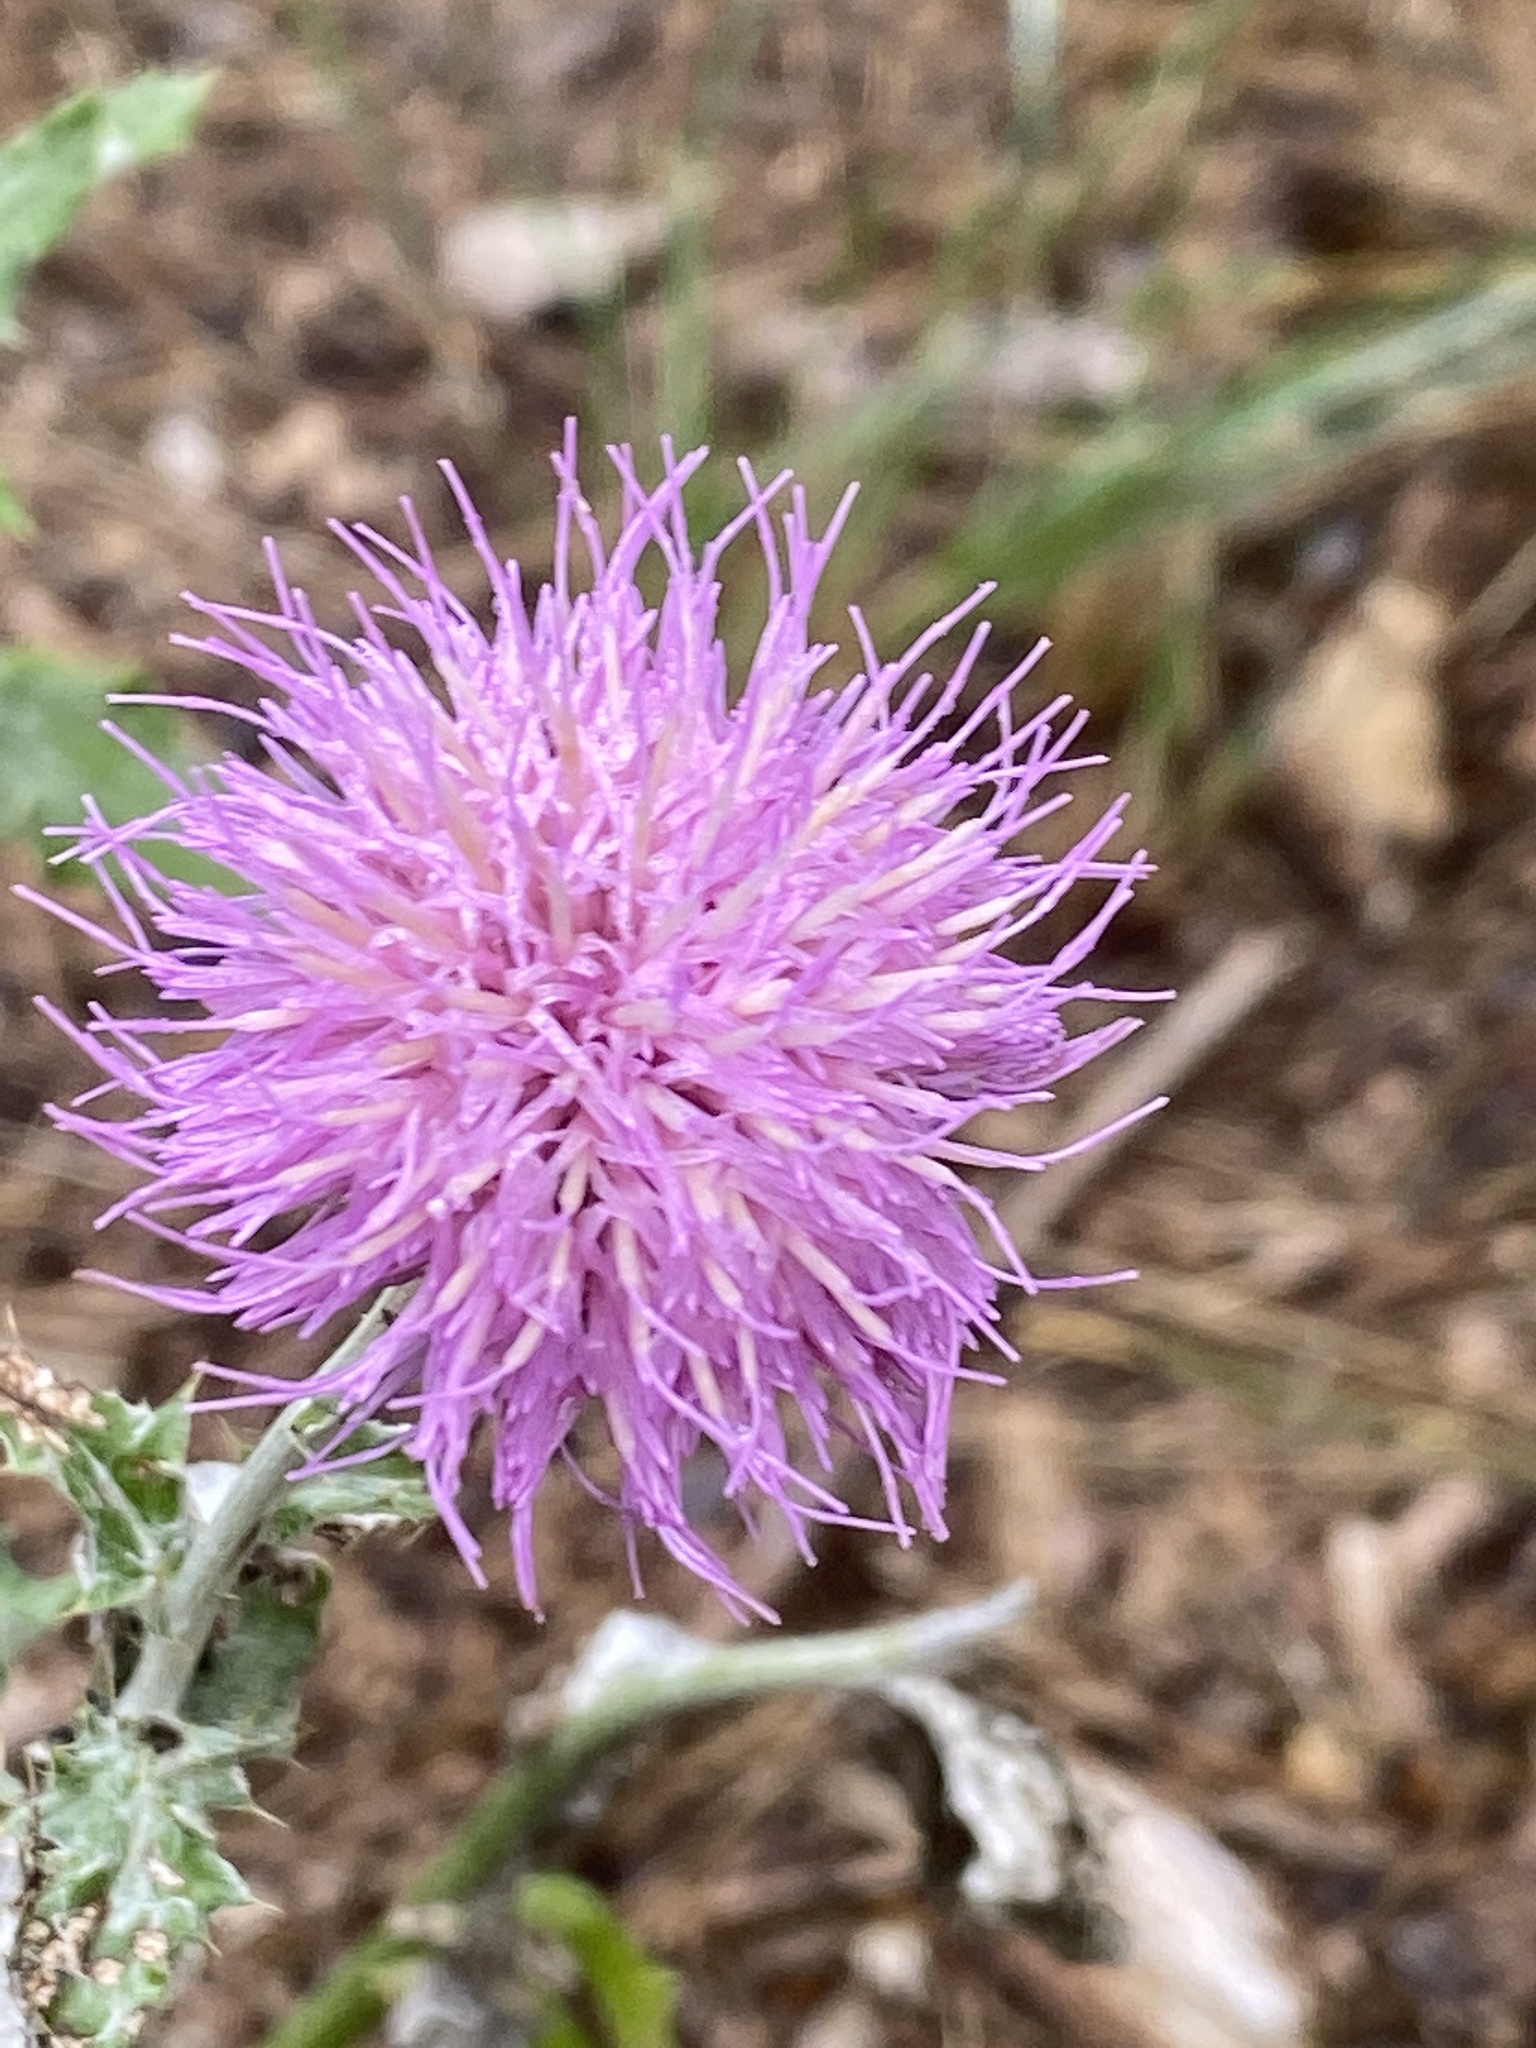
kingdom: Plantae
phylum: Tracheophyta
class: Magnoliopsida
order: Asterales
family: Asteraceae
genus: Cirsium
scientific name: Cirsium texanum
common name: Texas purple thistle
